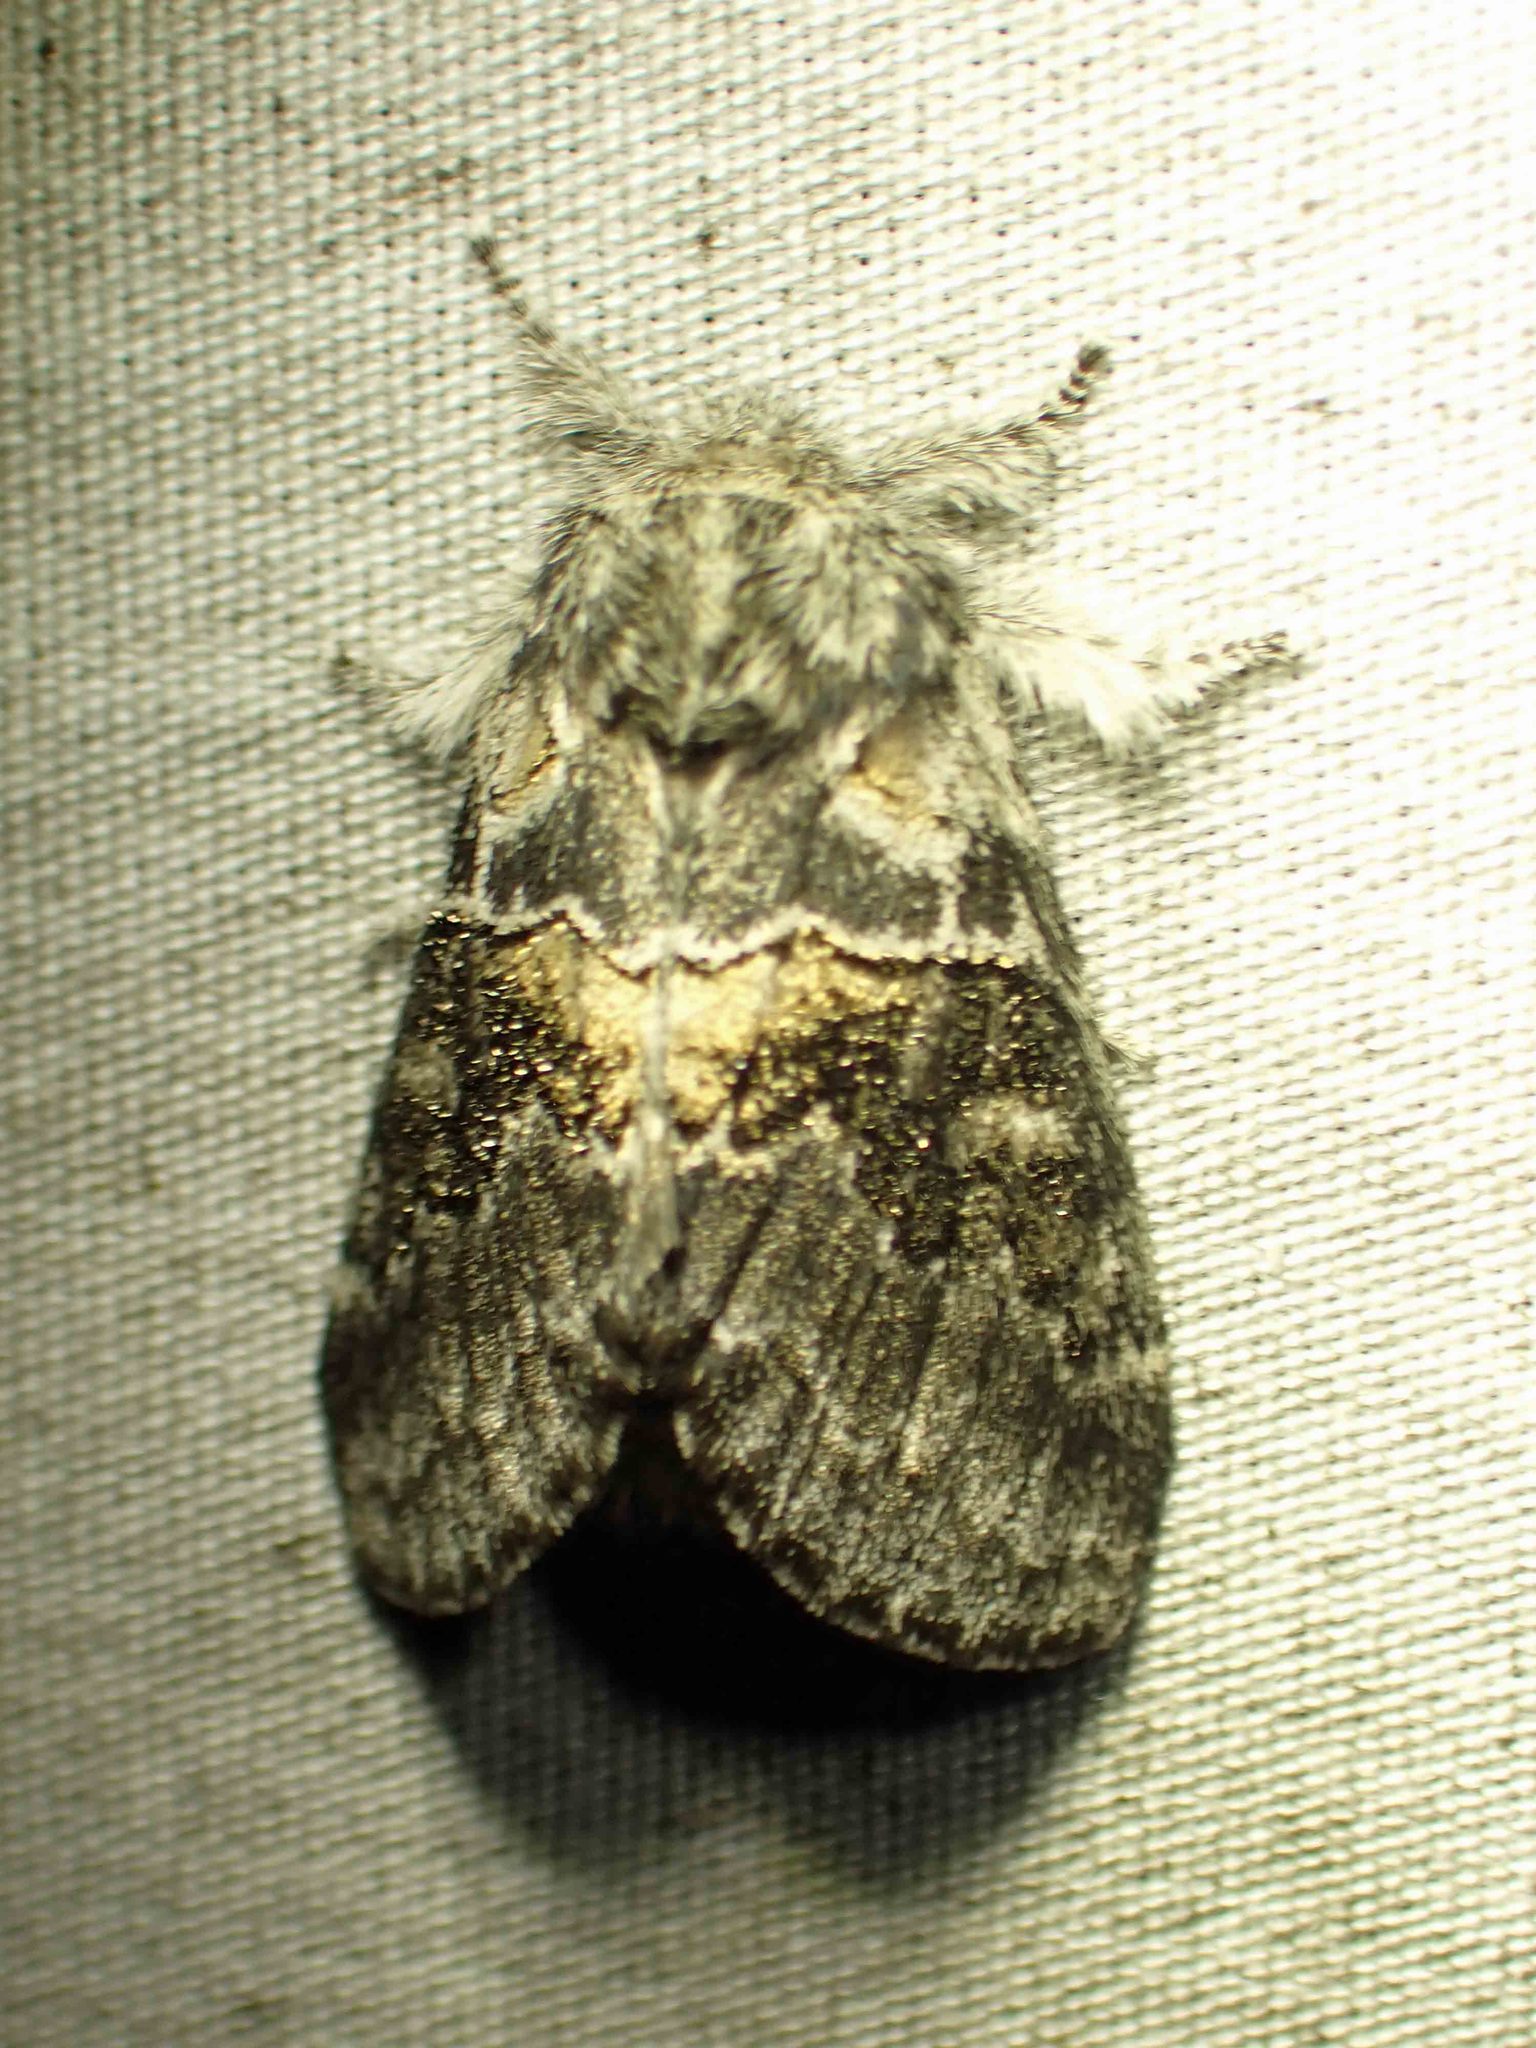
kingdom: Animalia
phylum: Arthropoda
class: Insecta
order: Lepidoptera
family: Notodontidae
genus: Gluphisia
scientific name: Gluphisia septentrionis
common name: Common gluphisia
